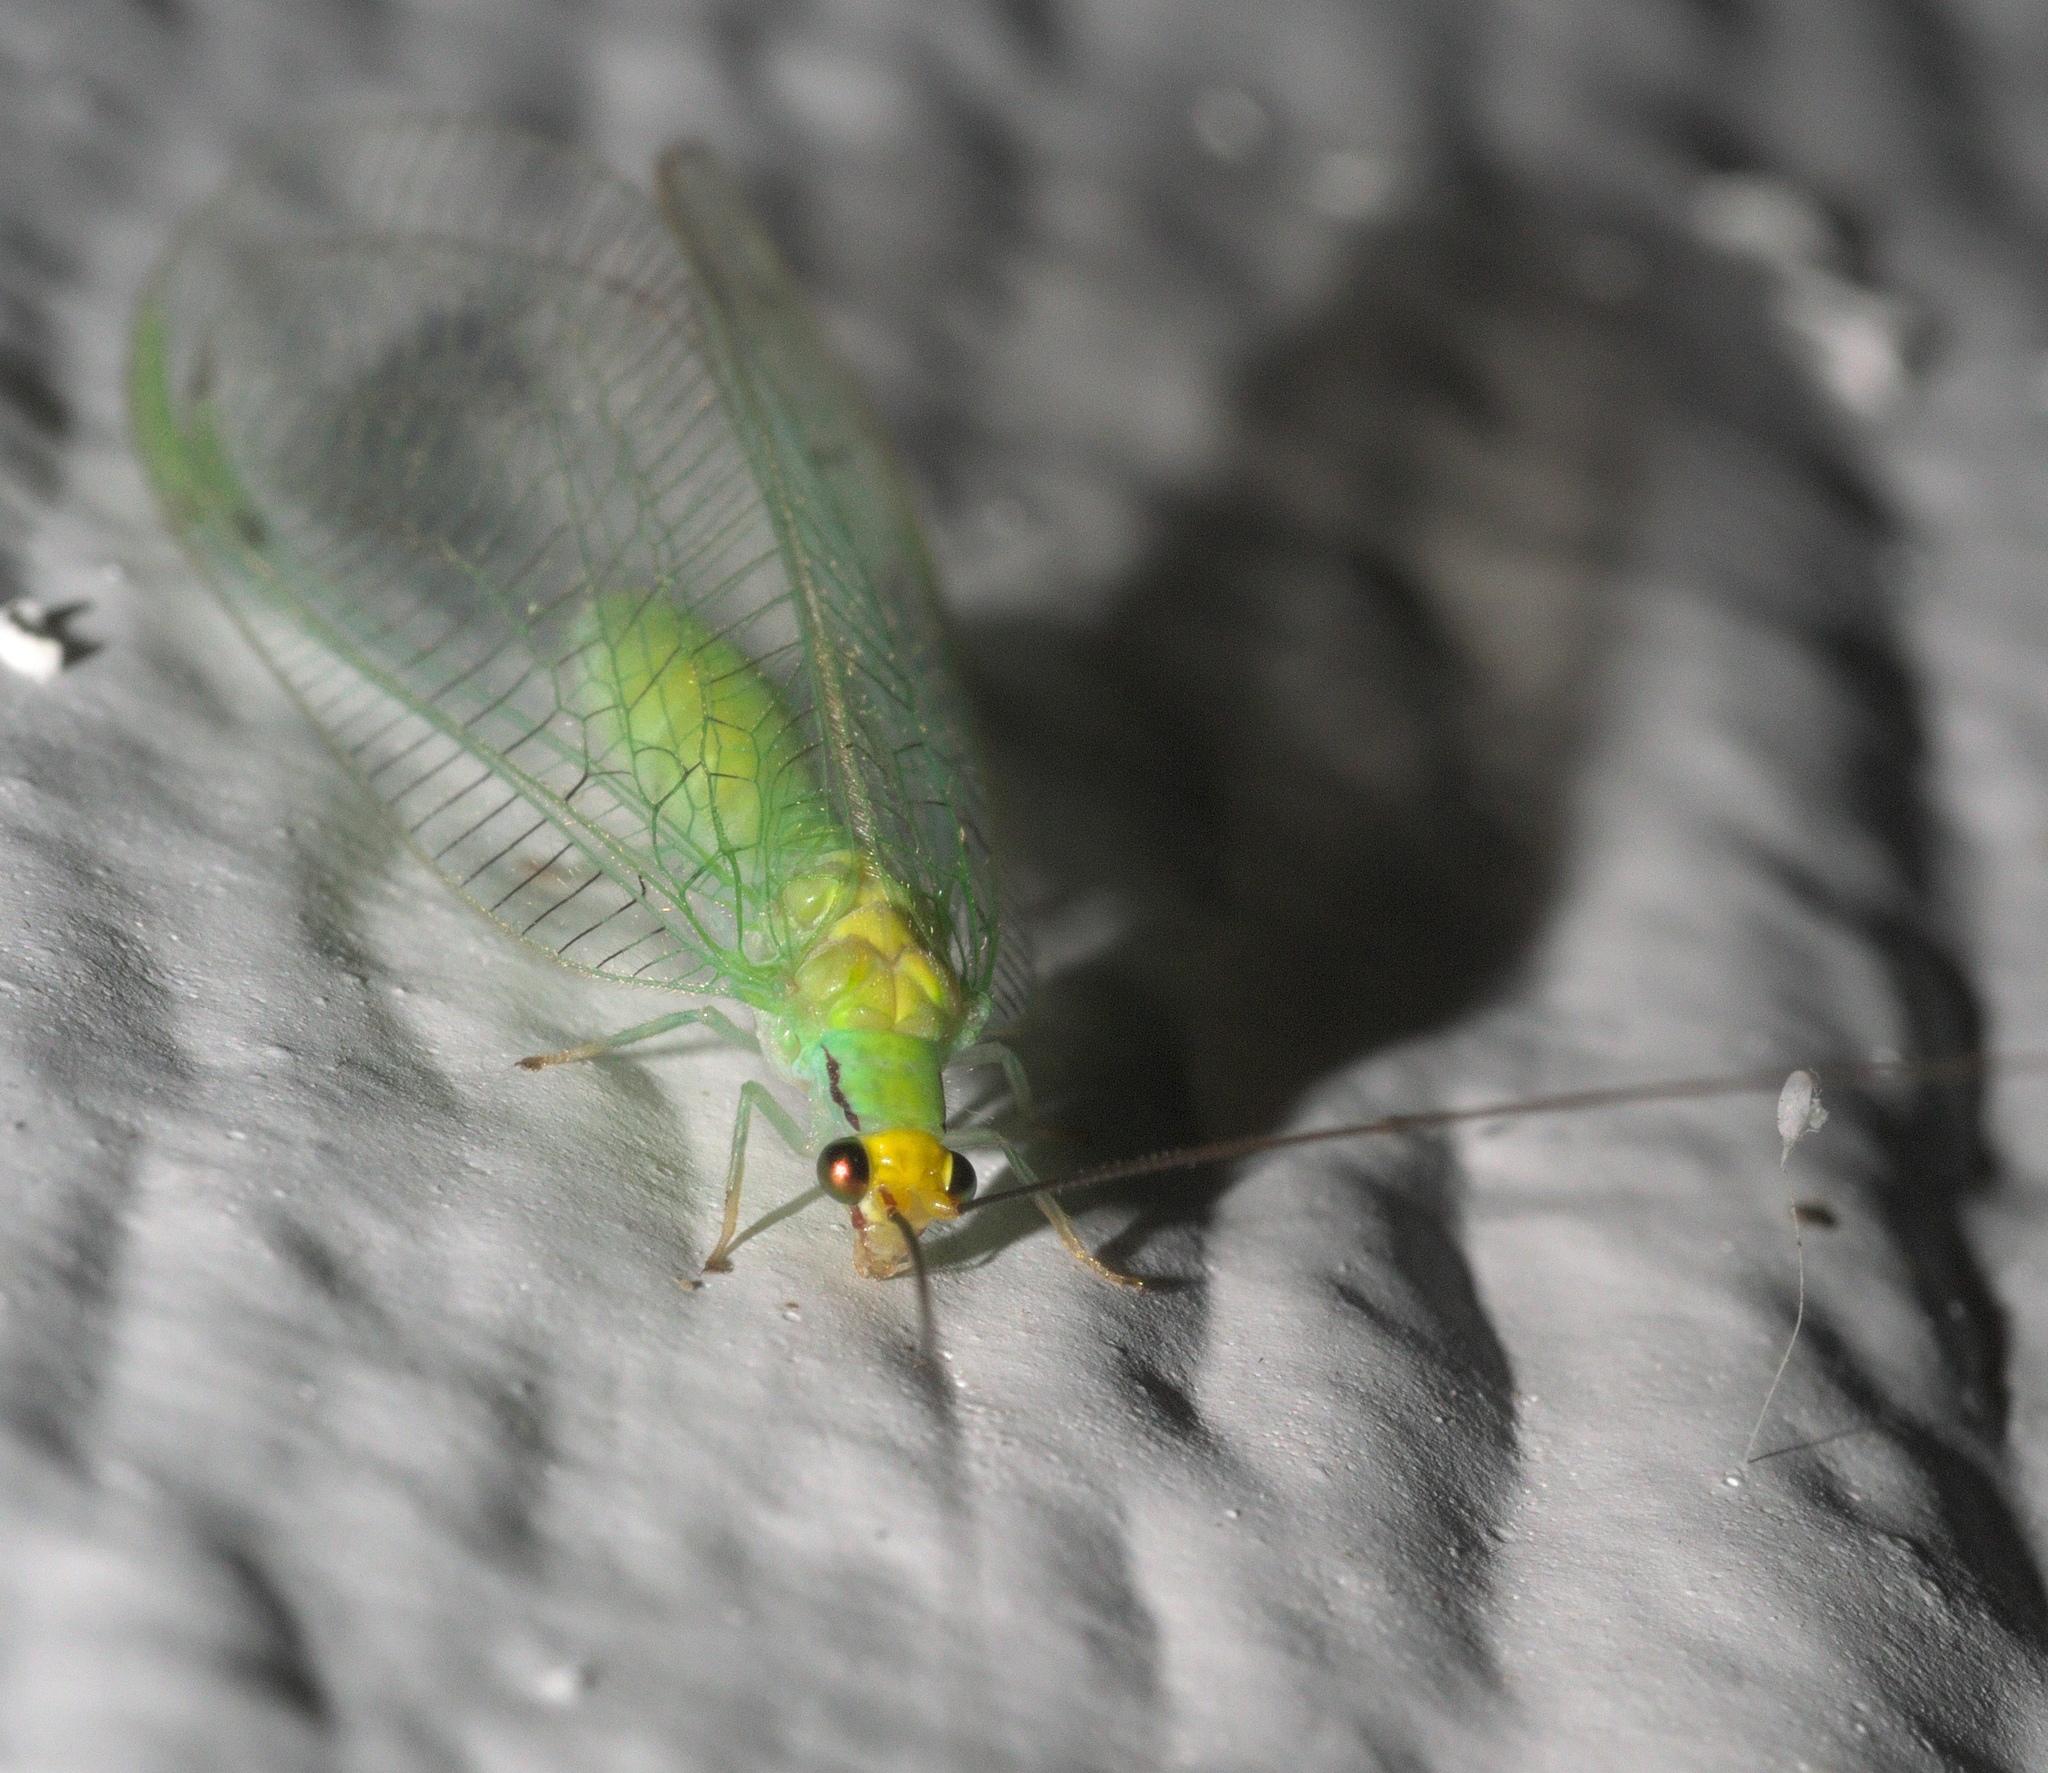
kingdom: Animalia
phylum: Arthropoda
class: Insecta
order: Neuroptera
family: Chrysopidae
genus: Leucochrysa
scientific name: Leucochrysa pavida
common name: Lichen-carrying green lacewing
